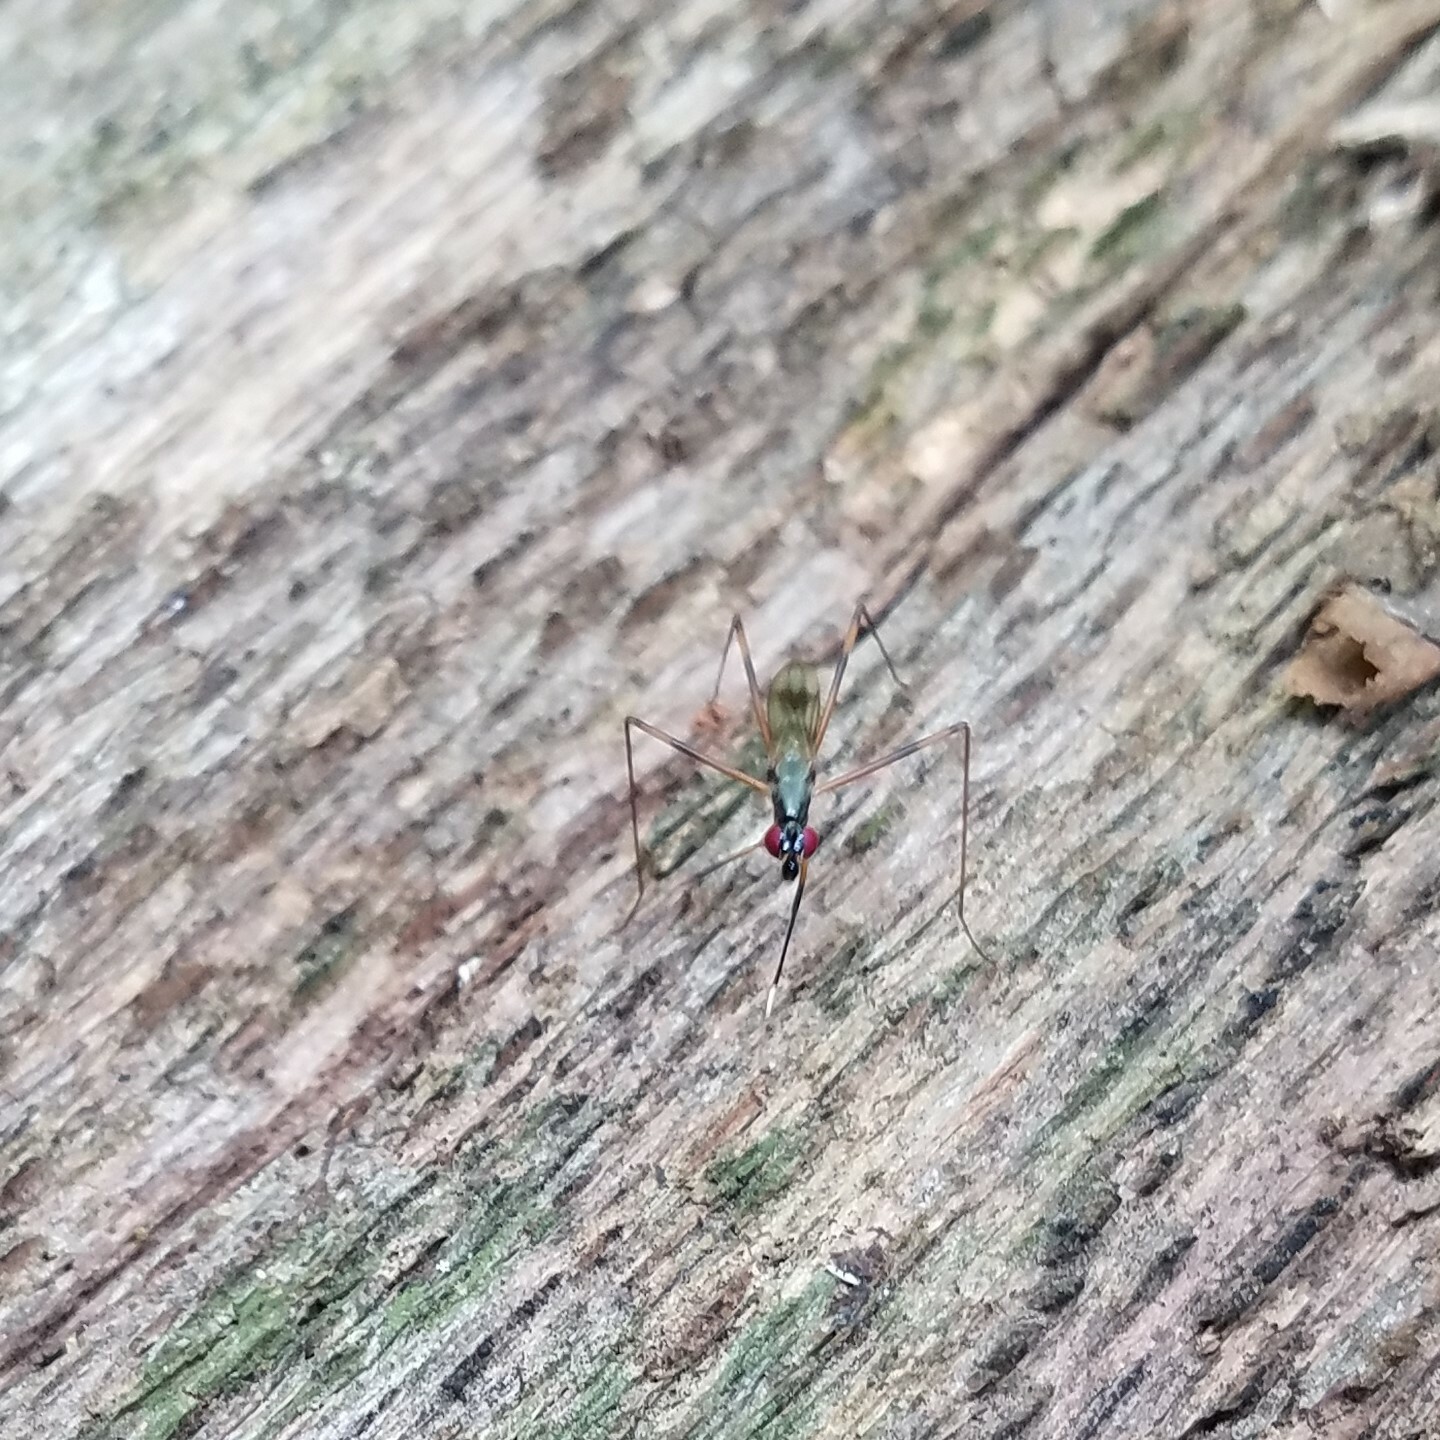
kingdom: Animalia
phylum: Arthropoda
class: Insecta
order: Diptera
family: Micropezidae
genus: Rainieria
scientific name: Rainieria antennaepes
